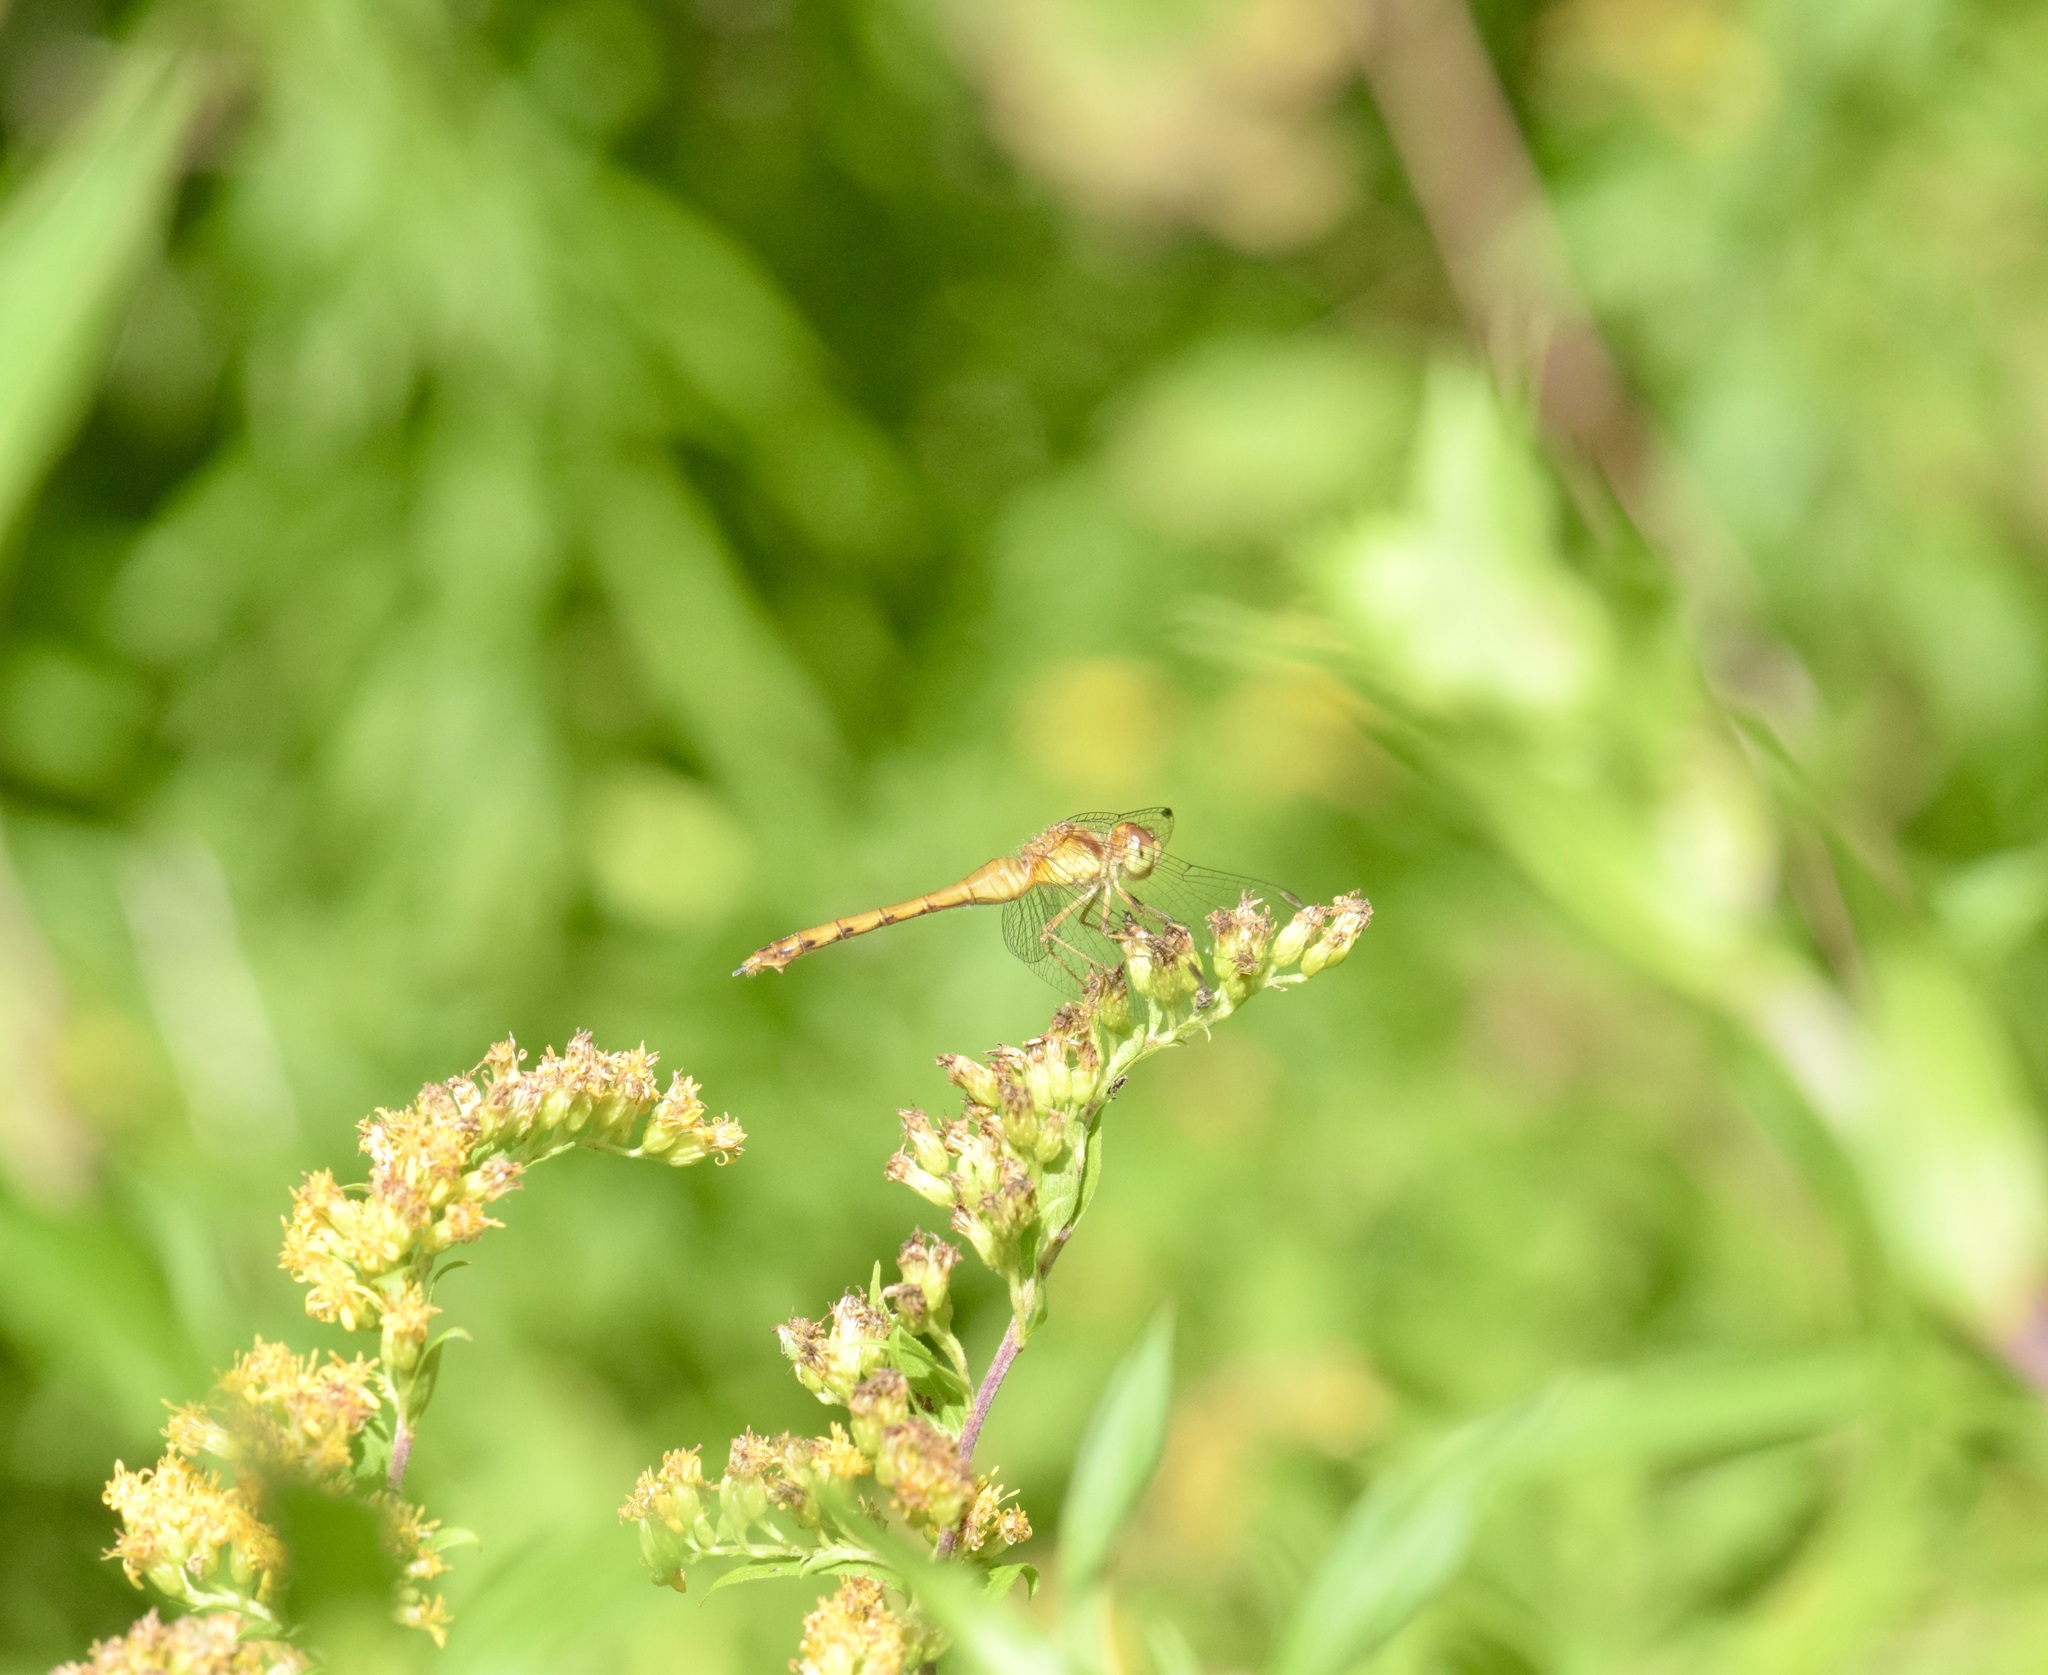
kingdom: Animalia
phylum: Arthropoda
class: Insecta
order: Odonata
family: Libellulidae
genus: Sympetrum
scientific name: Sympetrum vicinum
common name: Autumn meadowhawk
